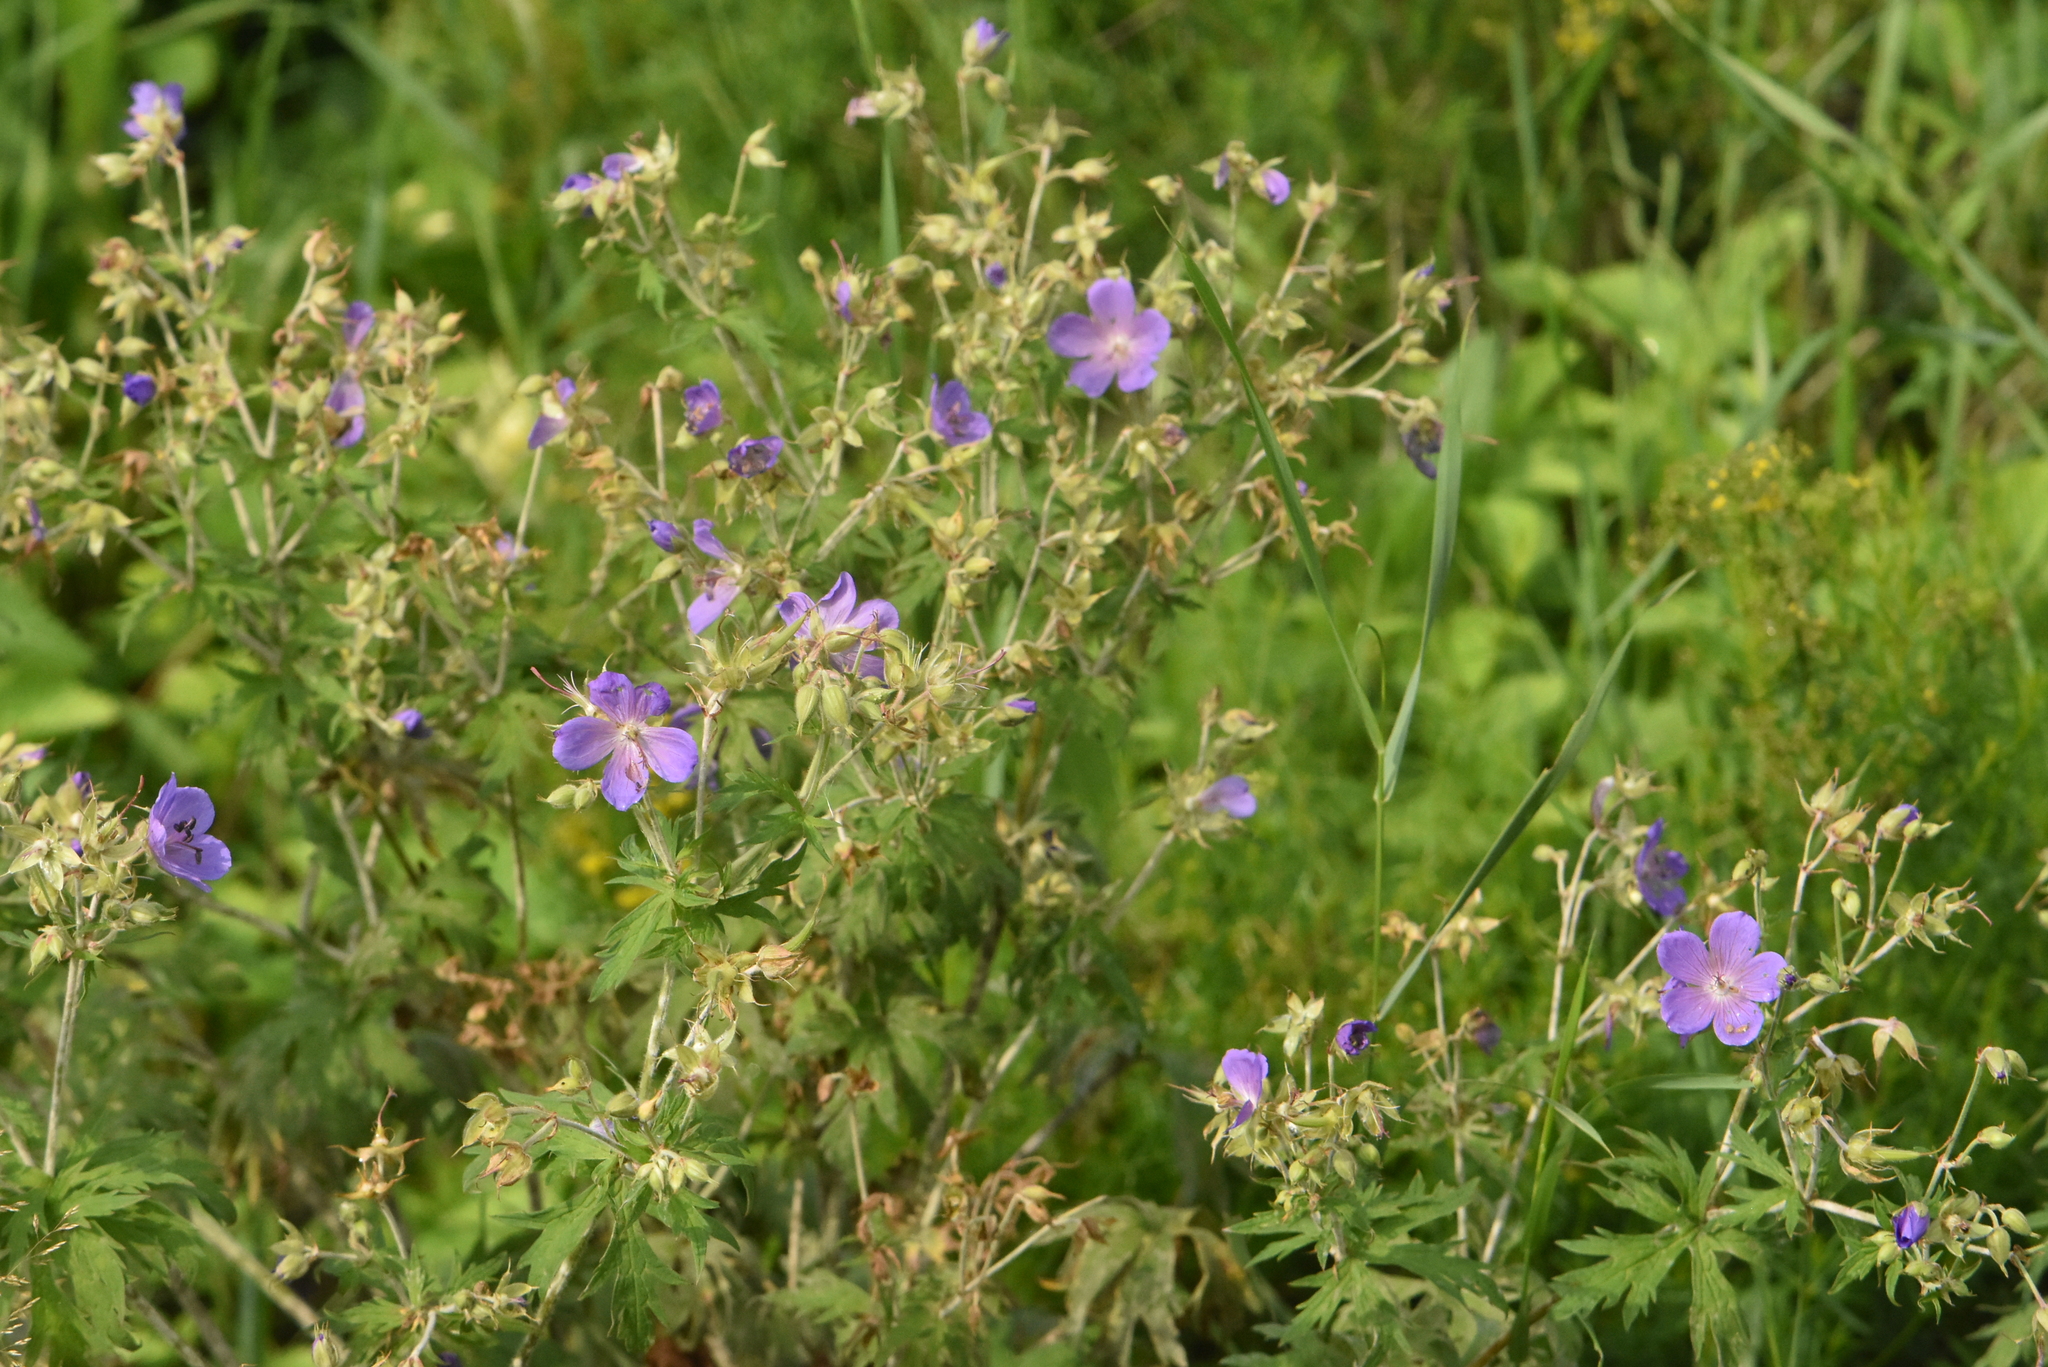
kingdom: Plantae
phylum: Tracheophyta
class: Magnoliopsida
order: Geraniales
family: Geraniaceae
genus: Geranium
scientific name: Geranium pratense
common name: Meadow crane's-bill
